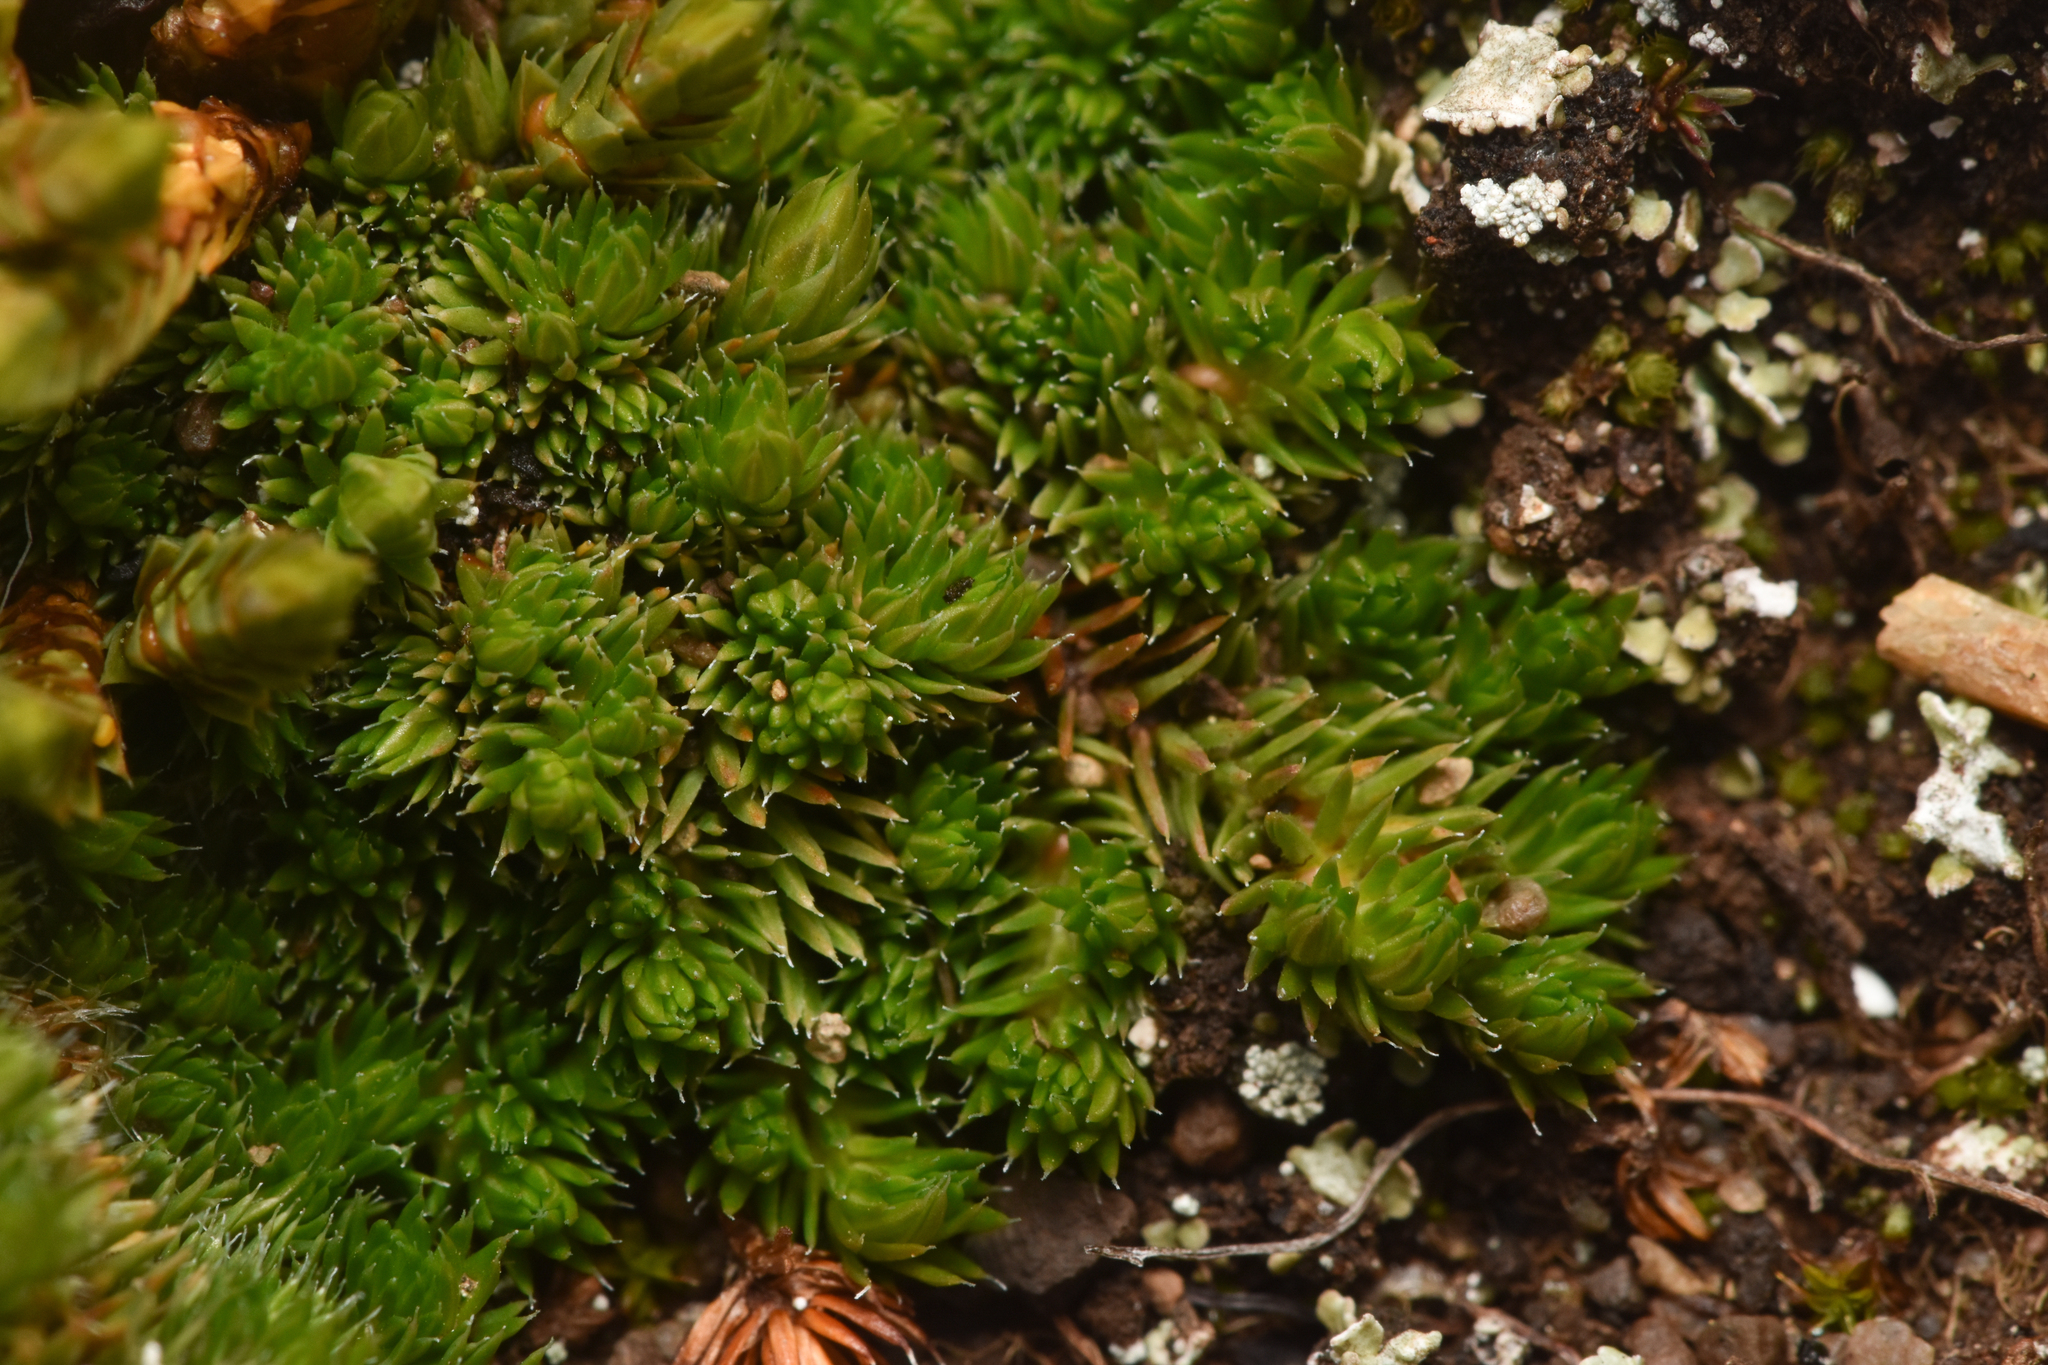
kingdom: Plantae
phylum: Tracheophyta
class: Lycopodiopsida
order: Selaginellales
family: Selaginellaceae
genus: Selaginella
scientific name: Selaginella densa
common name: Mountain spike-moss
